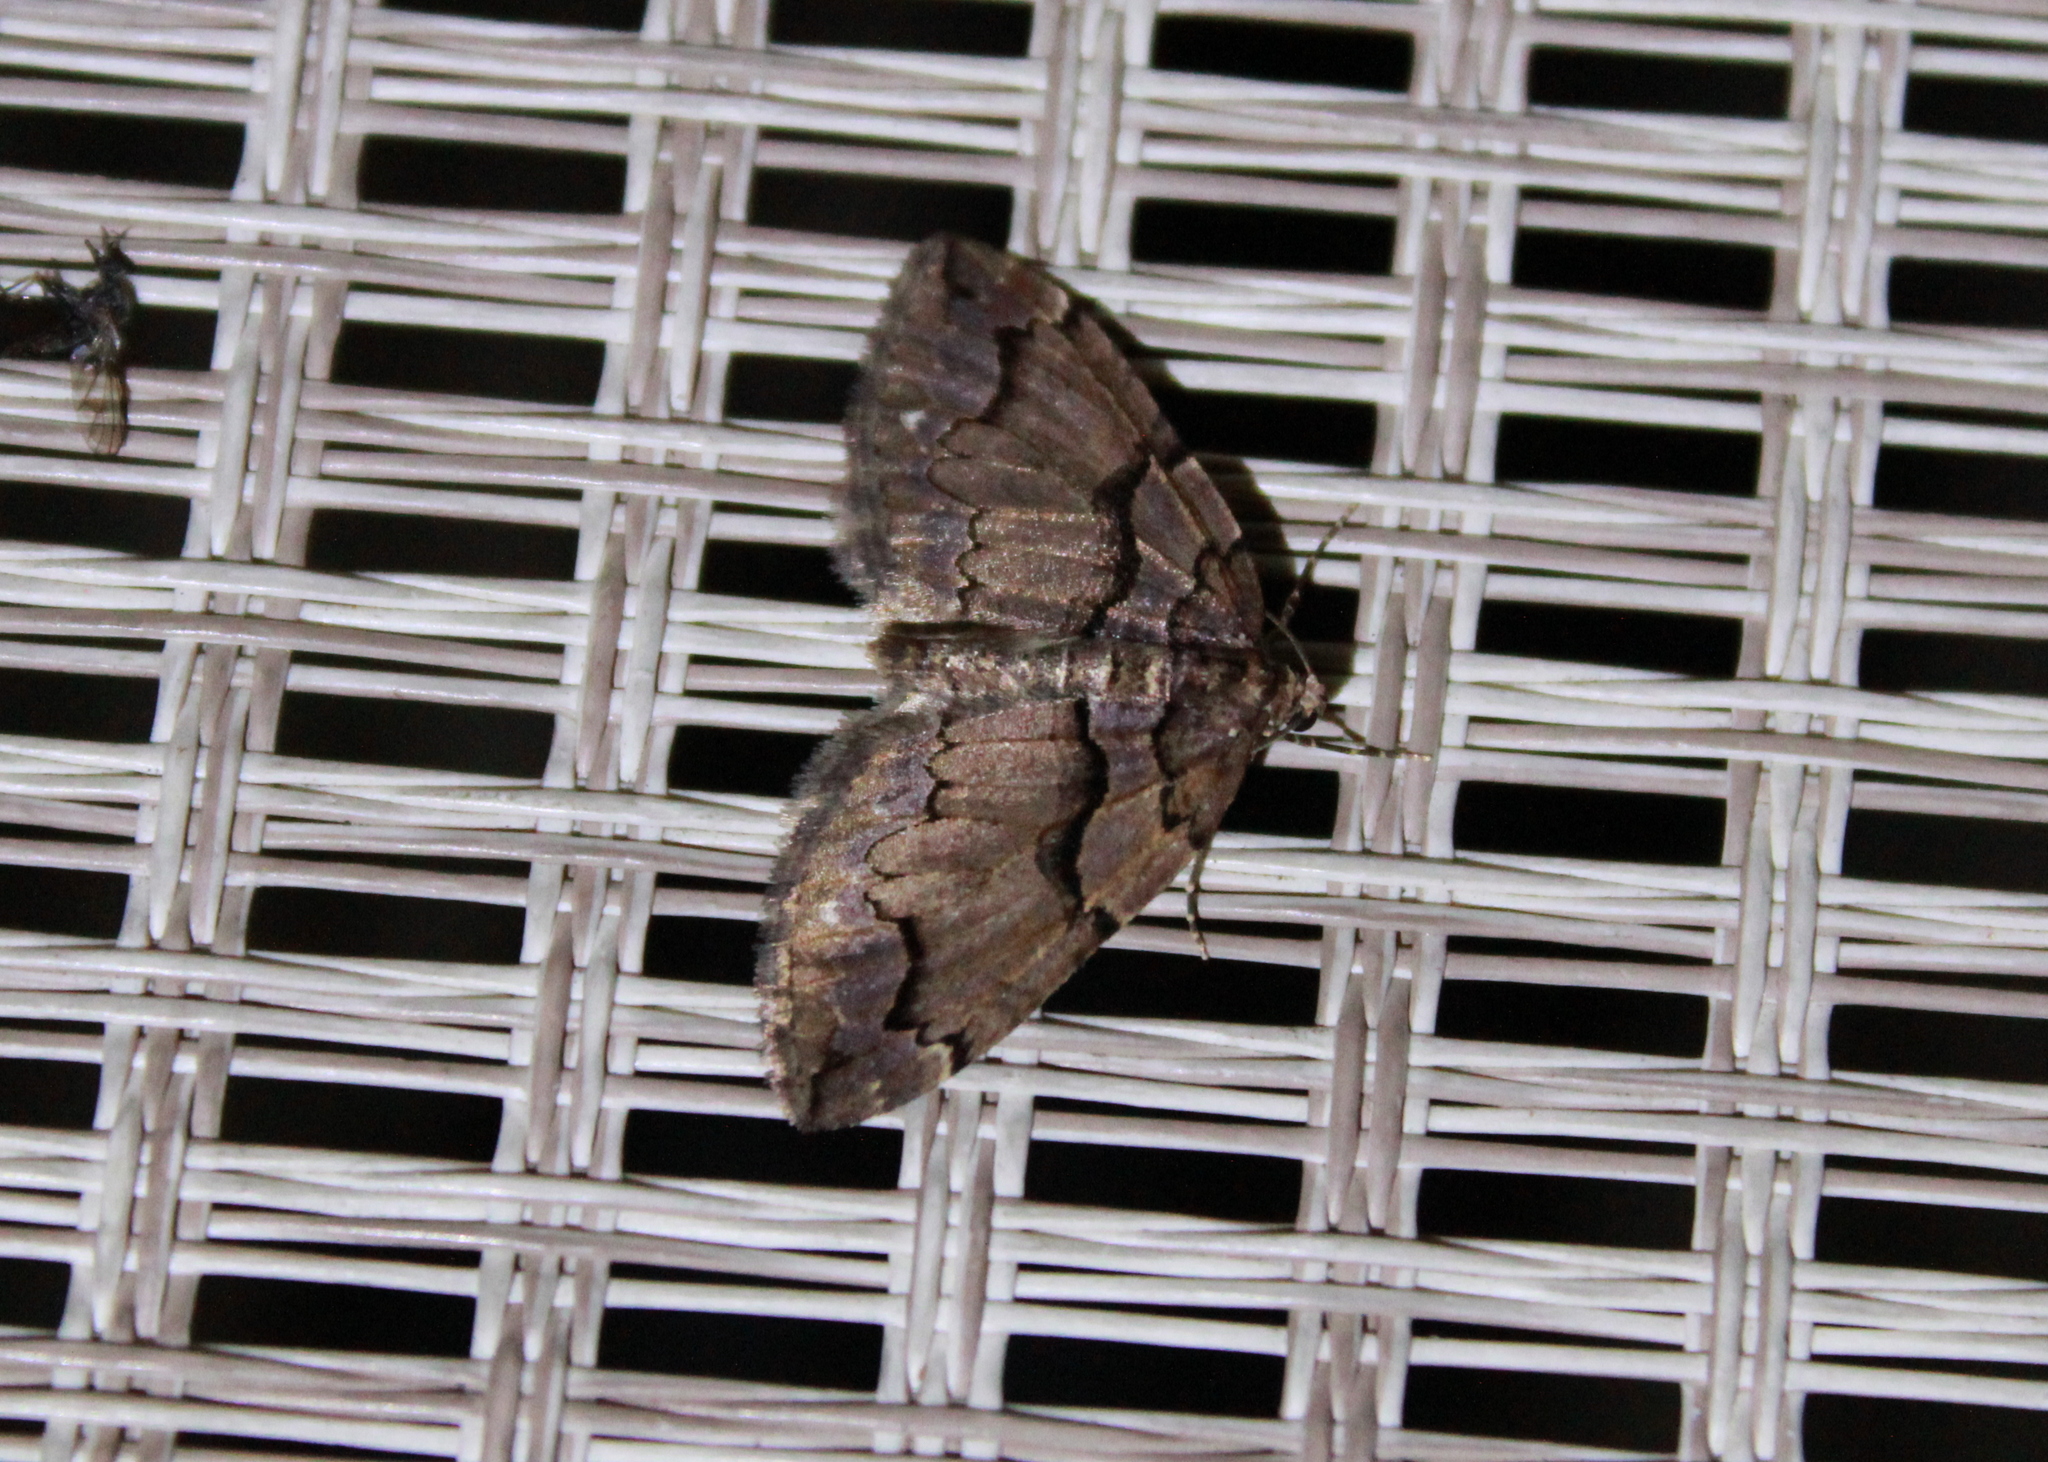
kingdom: Animalia
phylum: Arthropoda
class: Insecta
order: Lepidoptera
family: Geometridae
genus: Anticlea
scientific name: Anticlea vasiliata
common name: Variable carpet
